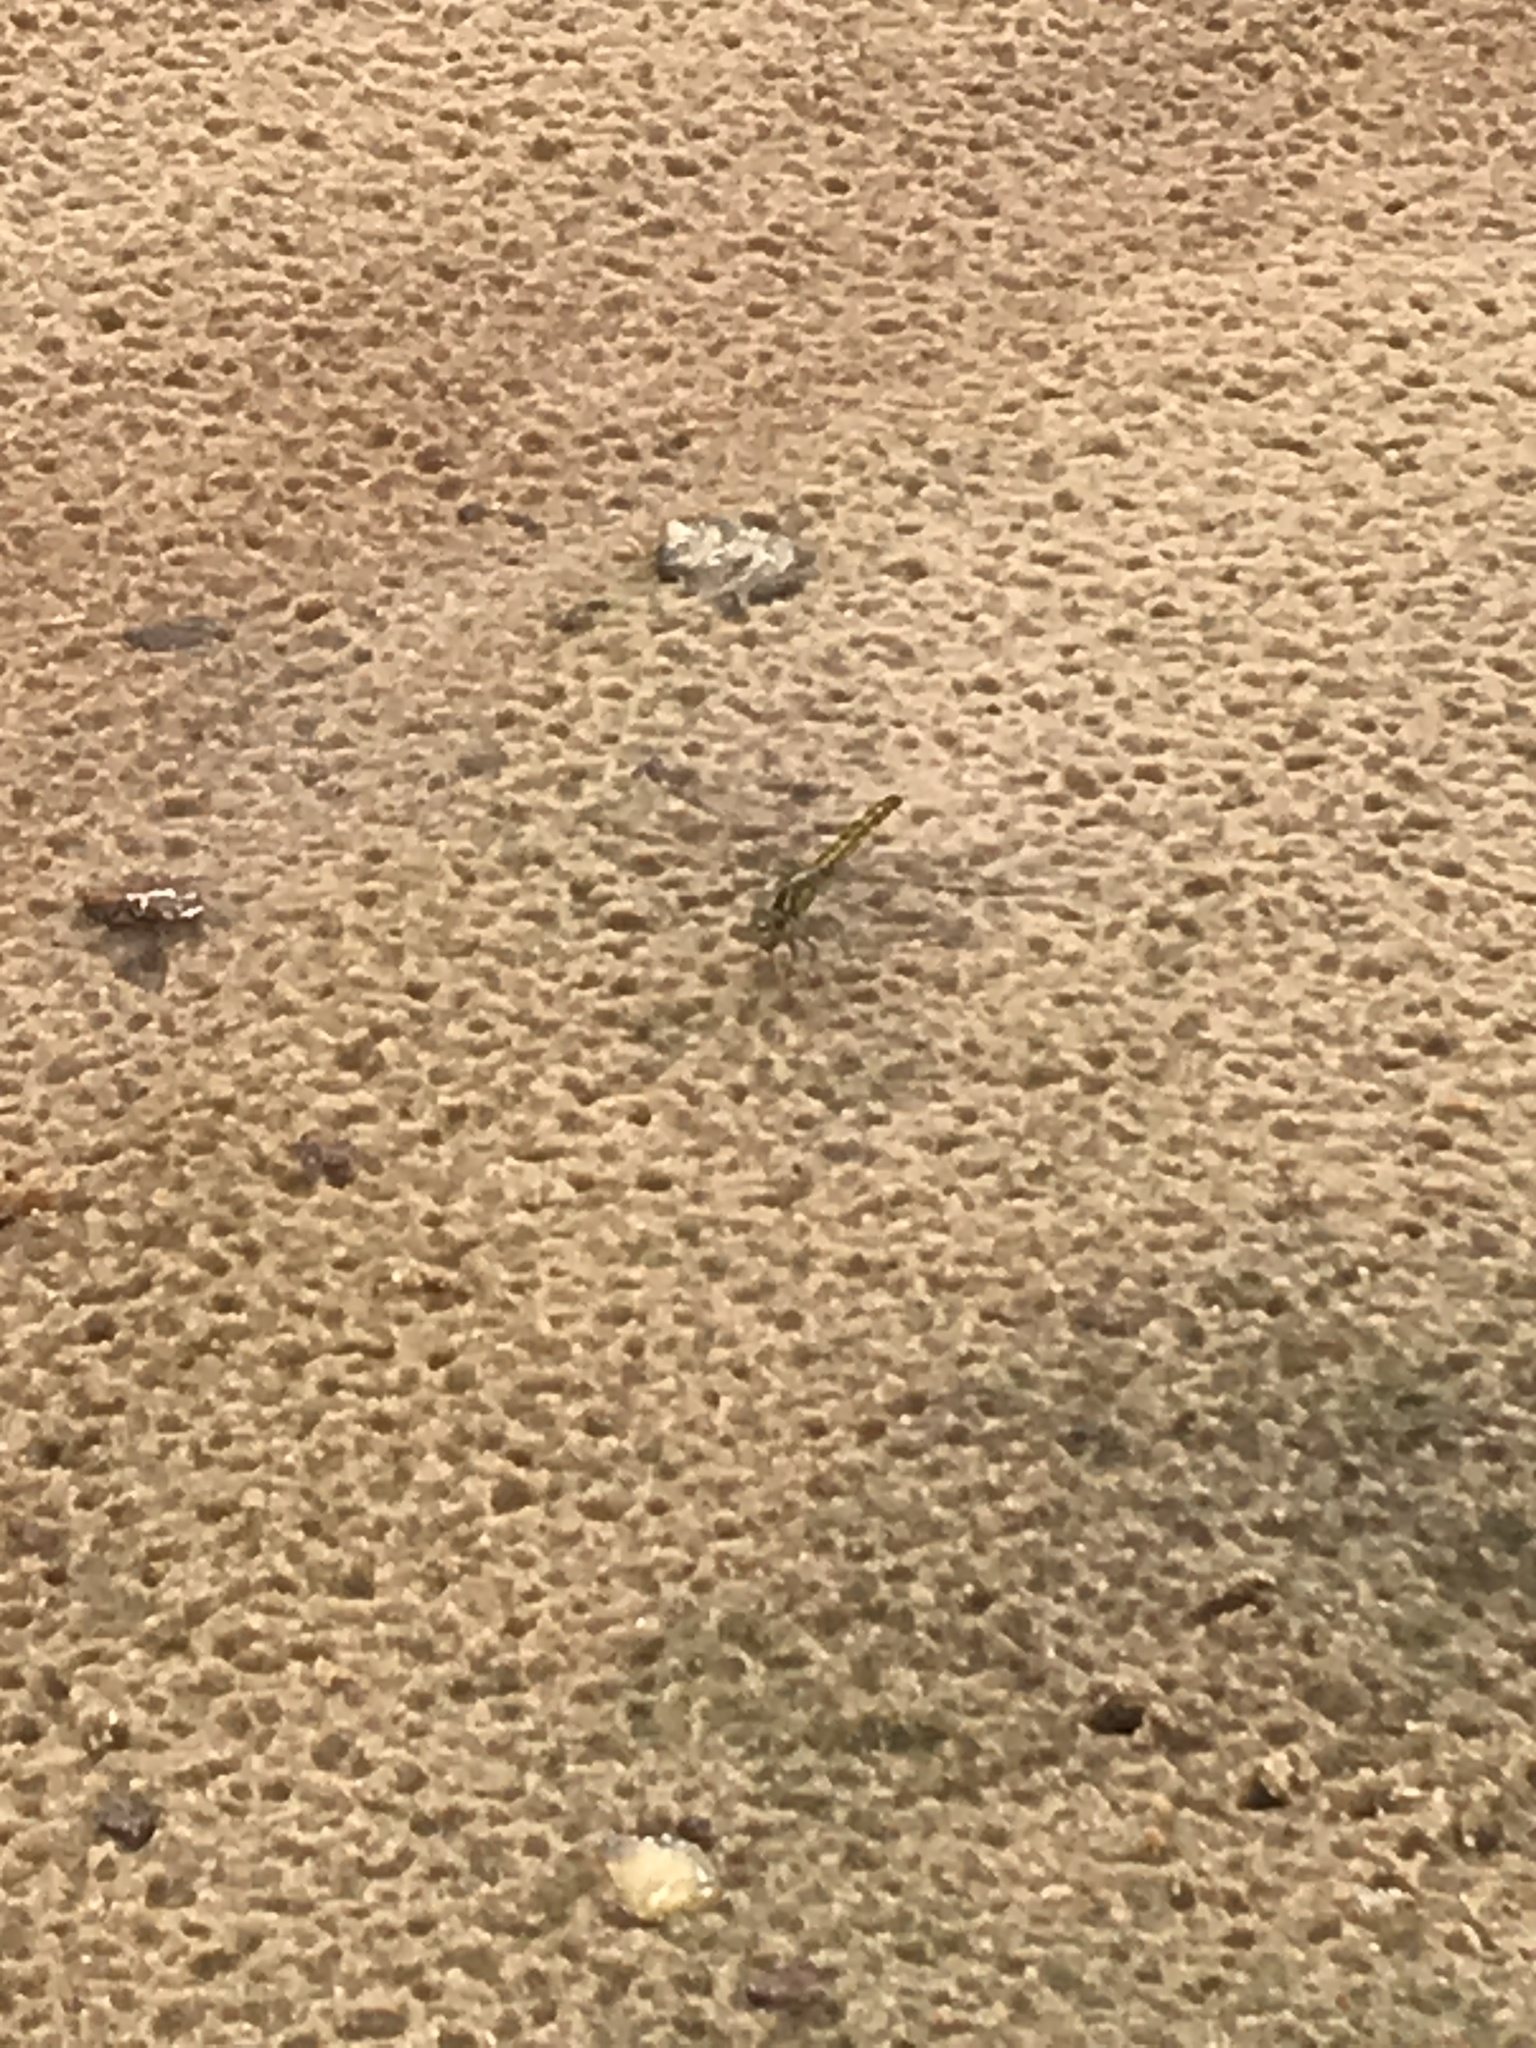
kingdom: Animalia
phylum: Arthropoda
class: Insecta
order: Odonata
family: Libellulidae
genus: Brachythemis
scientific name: Brachythemis
